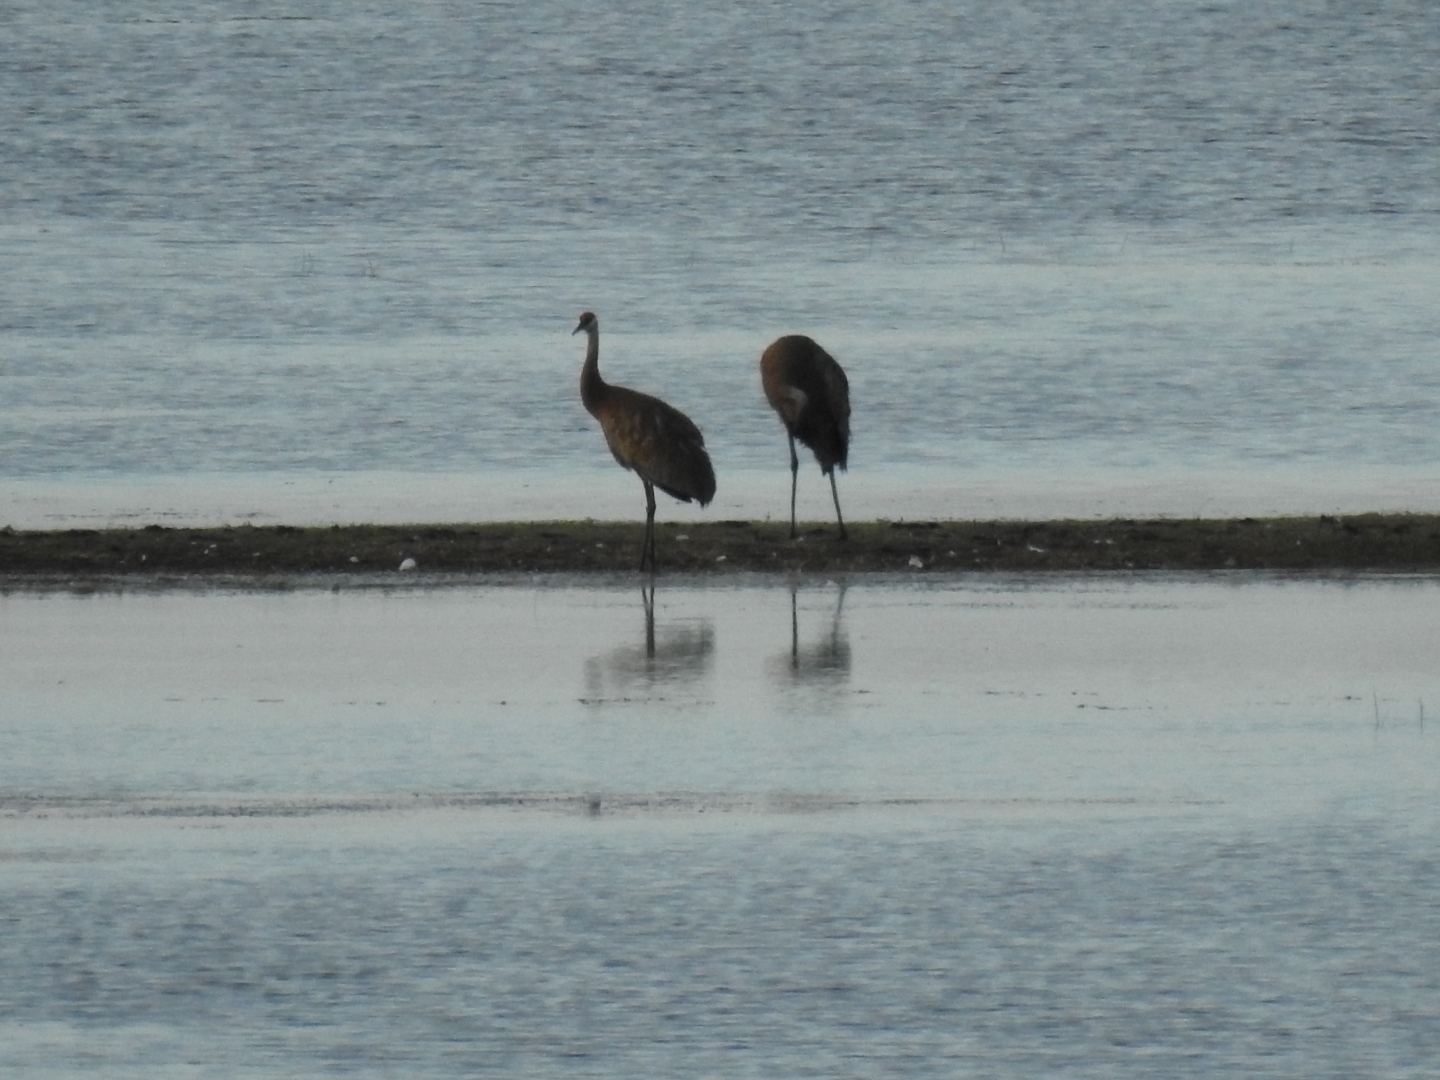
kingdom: Animalia
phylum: Chordata
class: Aves
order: Gruiformes
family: Gruidae
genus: Grus
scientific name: Grus canadensis
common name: Sandhill crane
